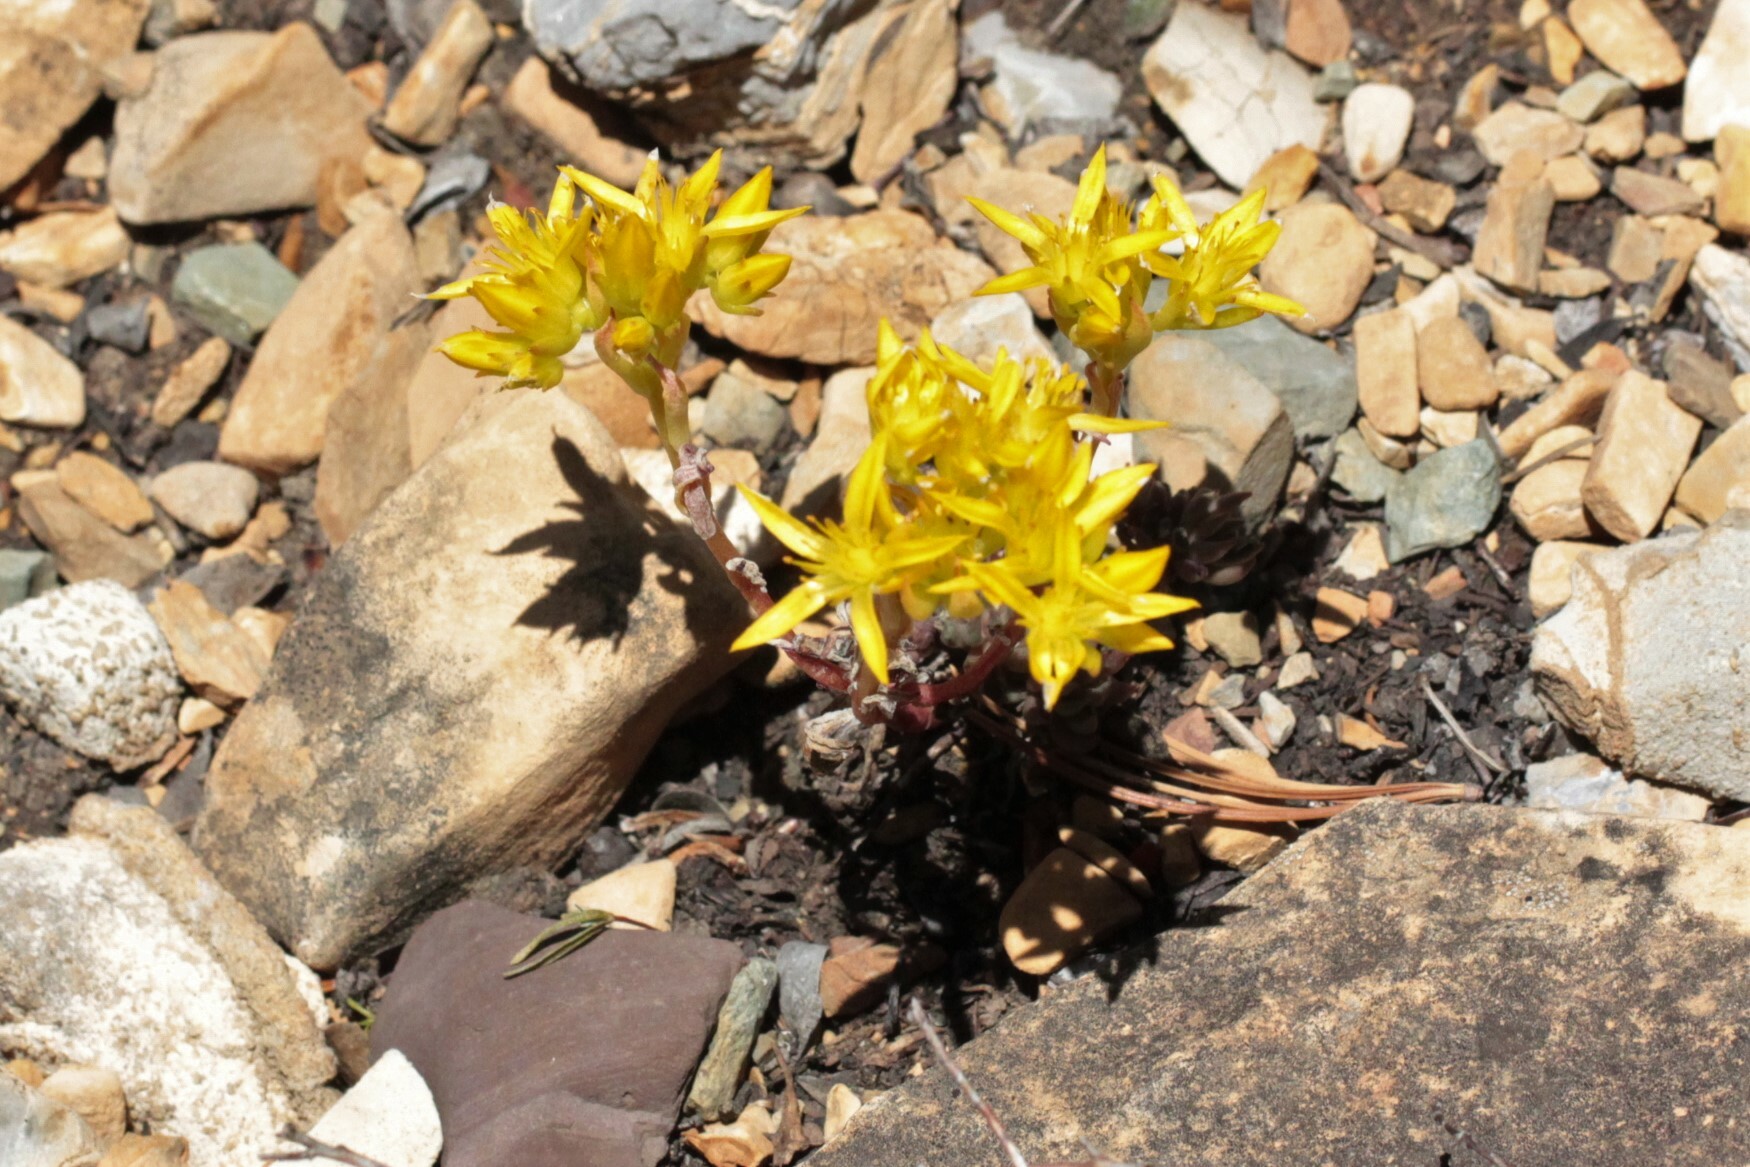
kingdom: Plantae
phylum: Tracheophyta
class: Magnoliopsida
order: Saxifragales
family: Crassulaceae
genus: Sedum
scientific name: Sedum lanceolatum
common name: Common stonecrop
